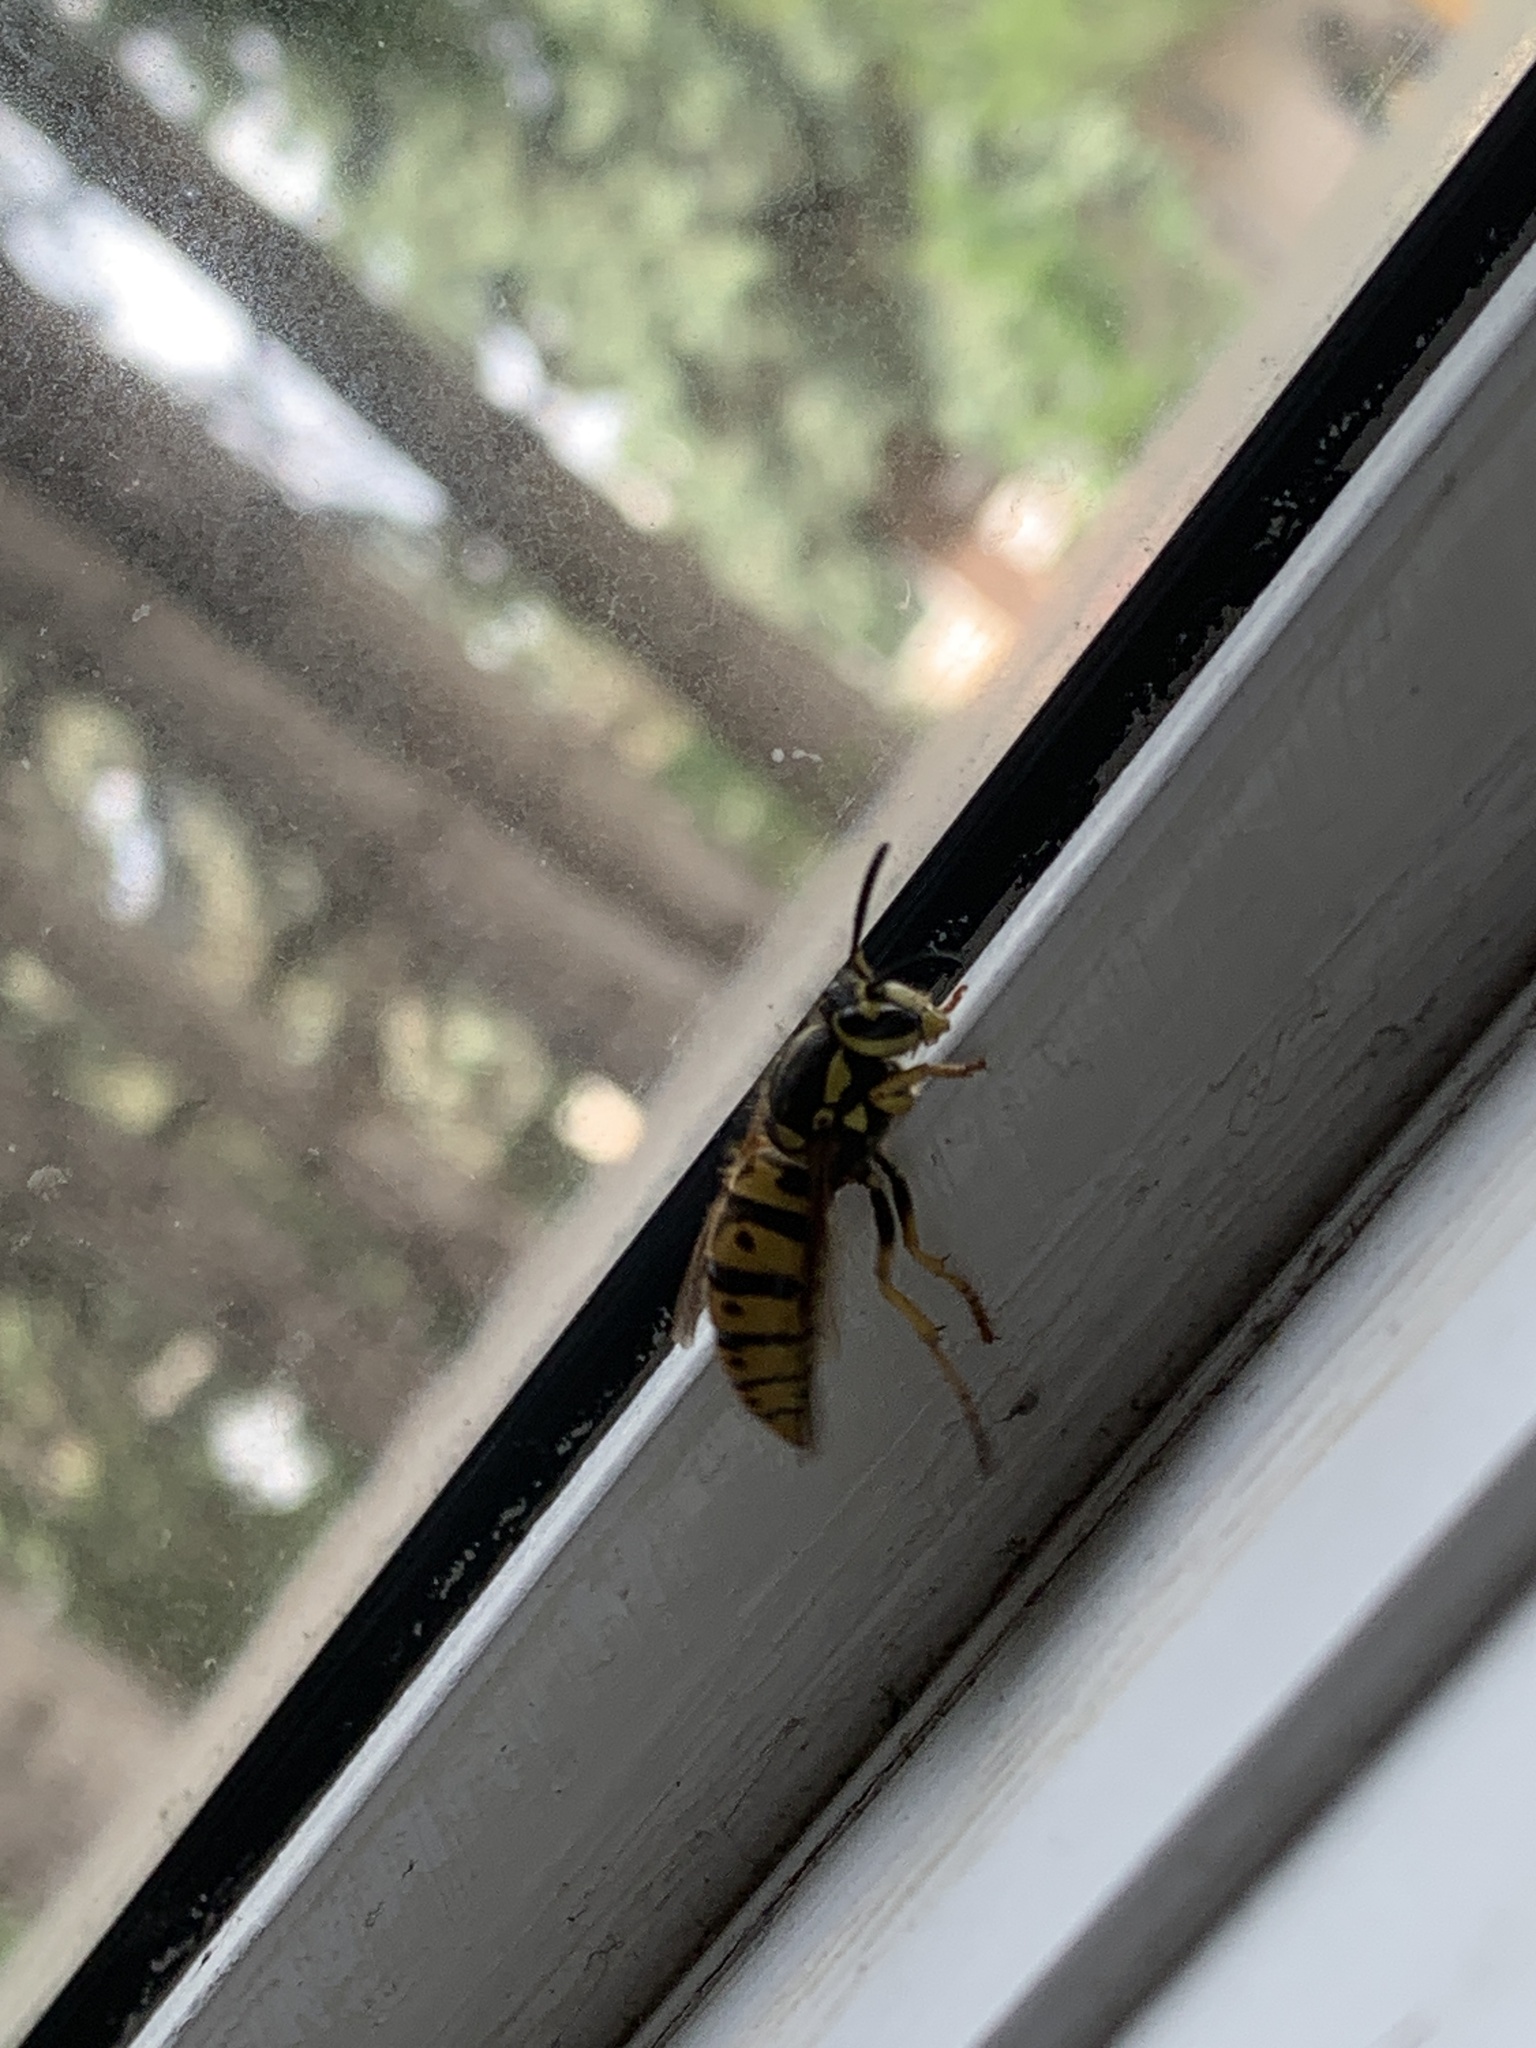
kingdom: Animalia
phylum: Arthropoda
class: Insecta
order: Hymenoptera
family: Vespidae
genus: Vespula
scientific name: Vespula pensylvanica
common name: Western yellowjacket
